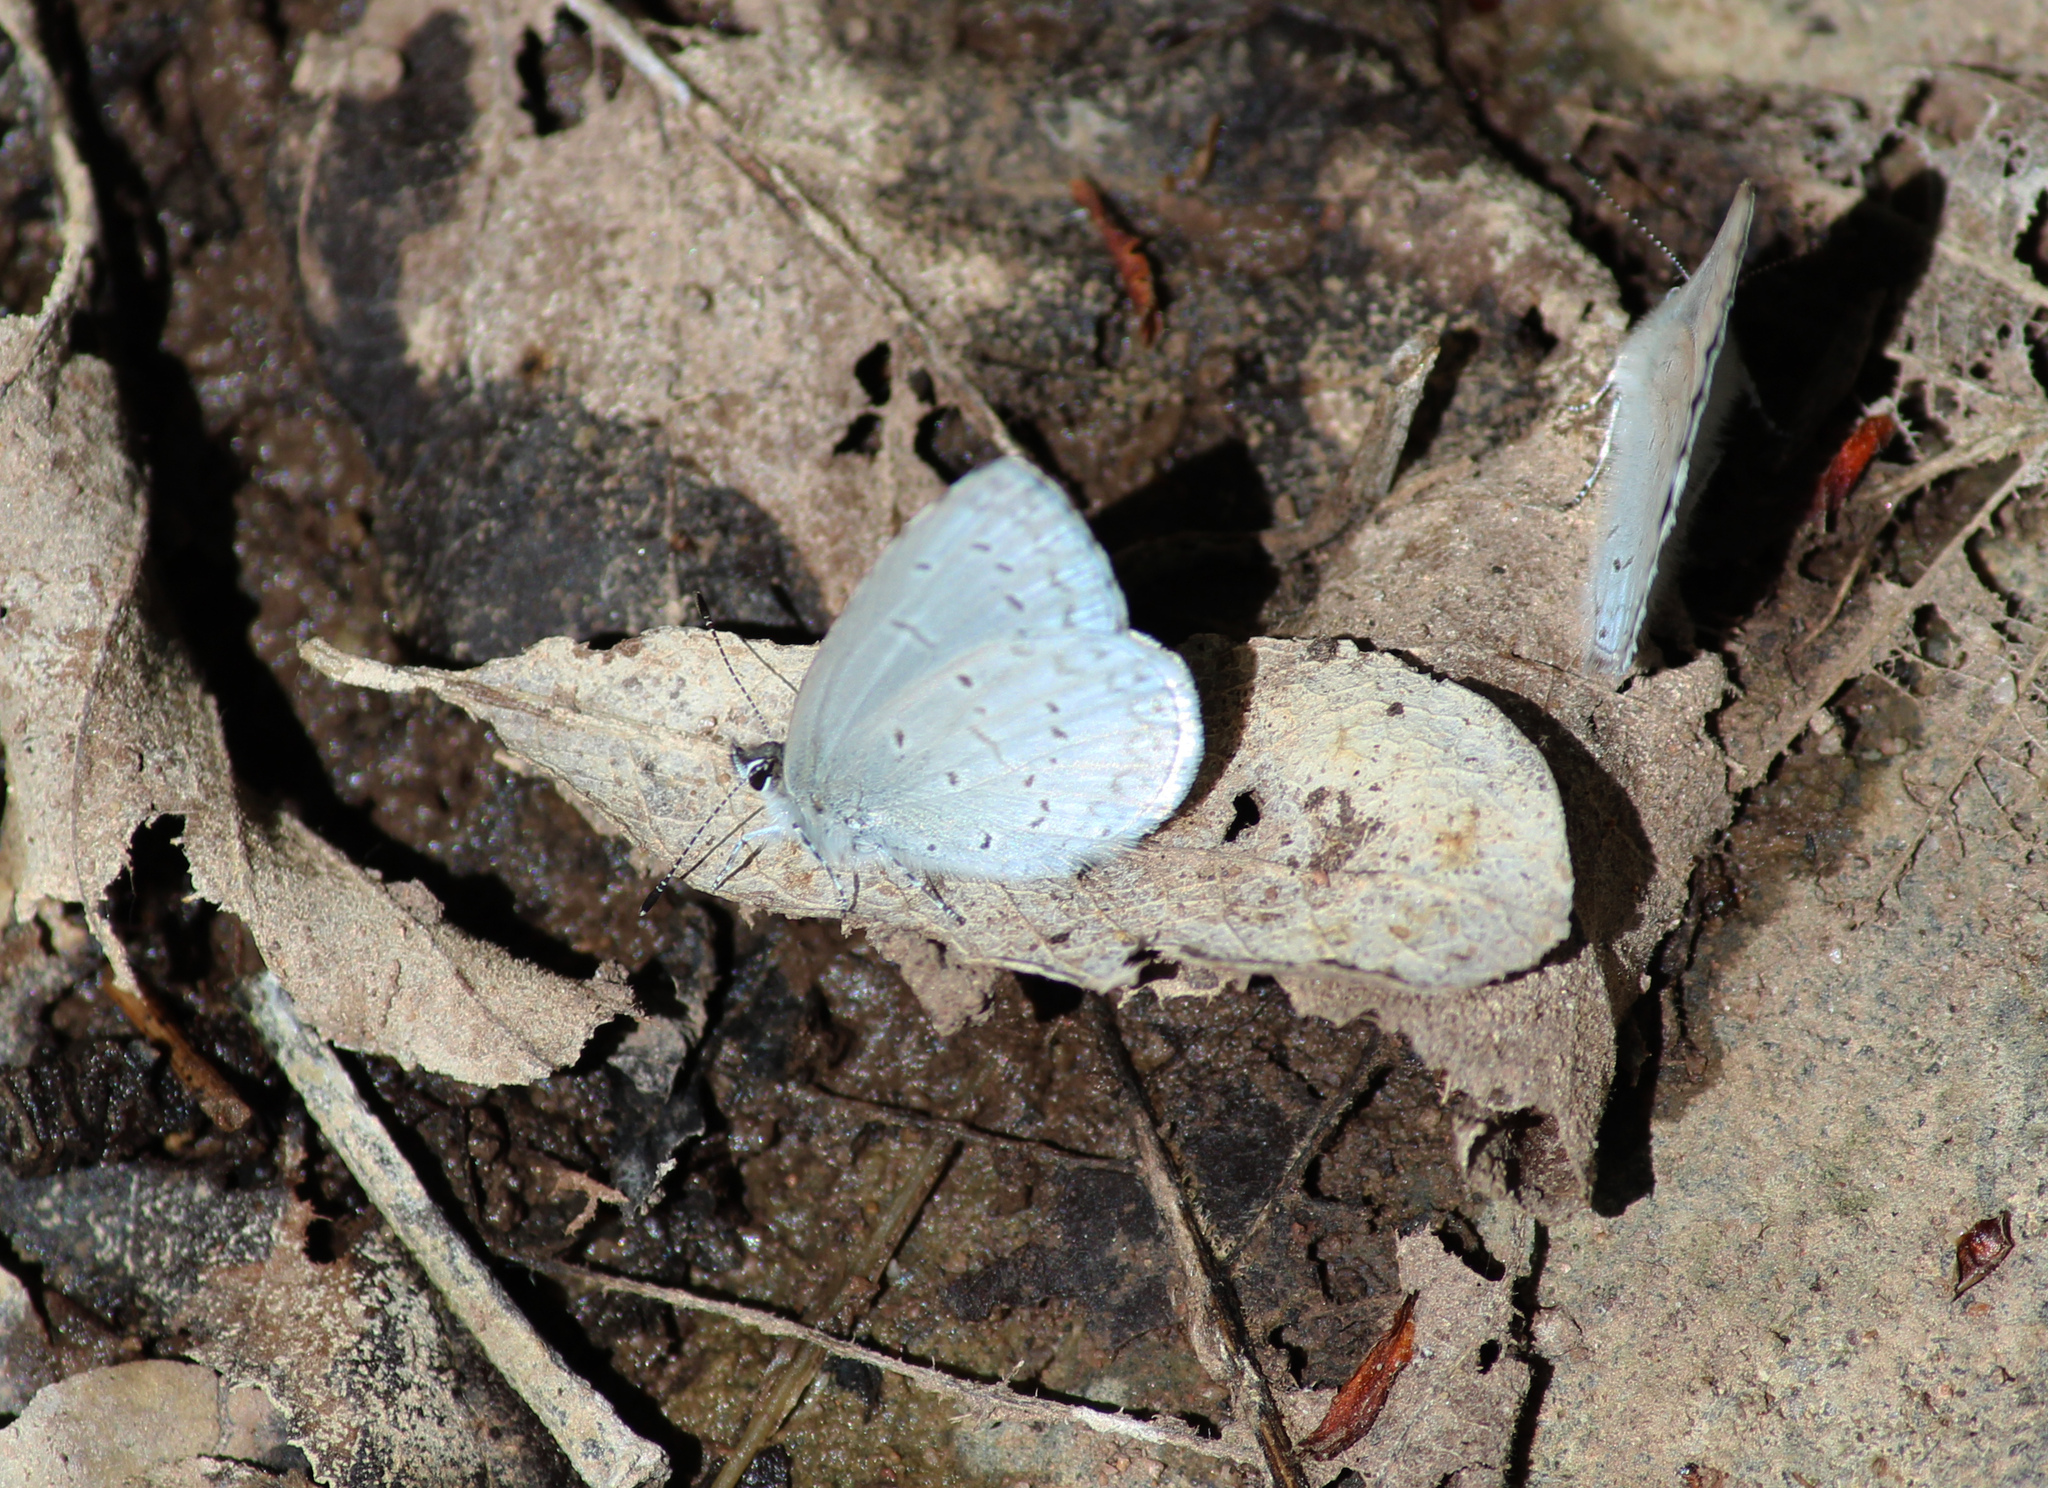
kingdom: Animalia
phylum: Arthropoda
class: Insecta
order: Lepidoptera
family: Lycaenidae
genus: Celastrina
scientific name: Celastrina ladon
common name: Spring azure
